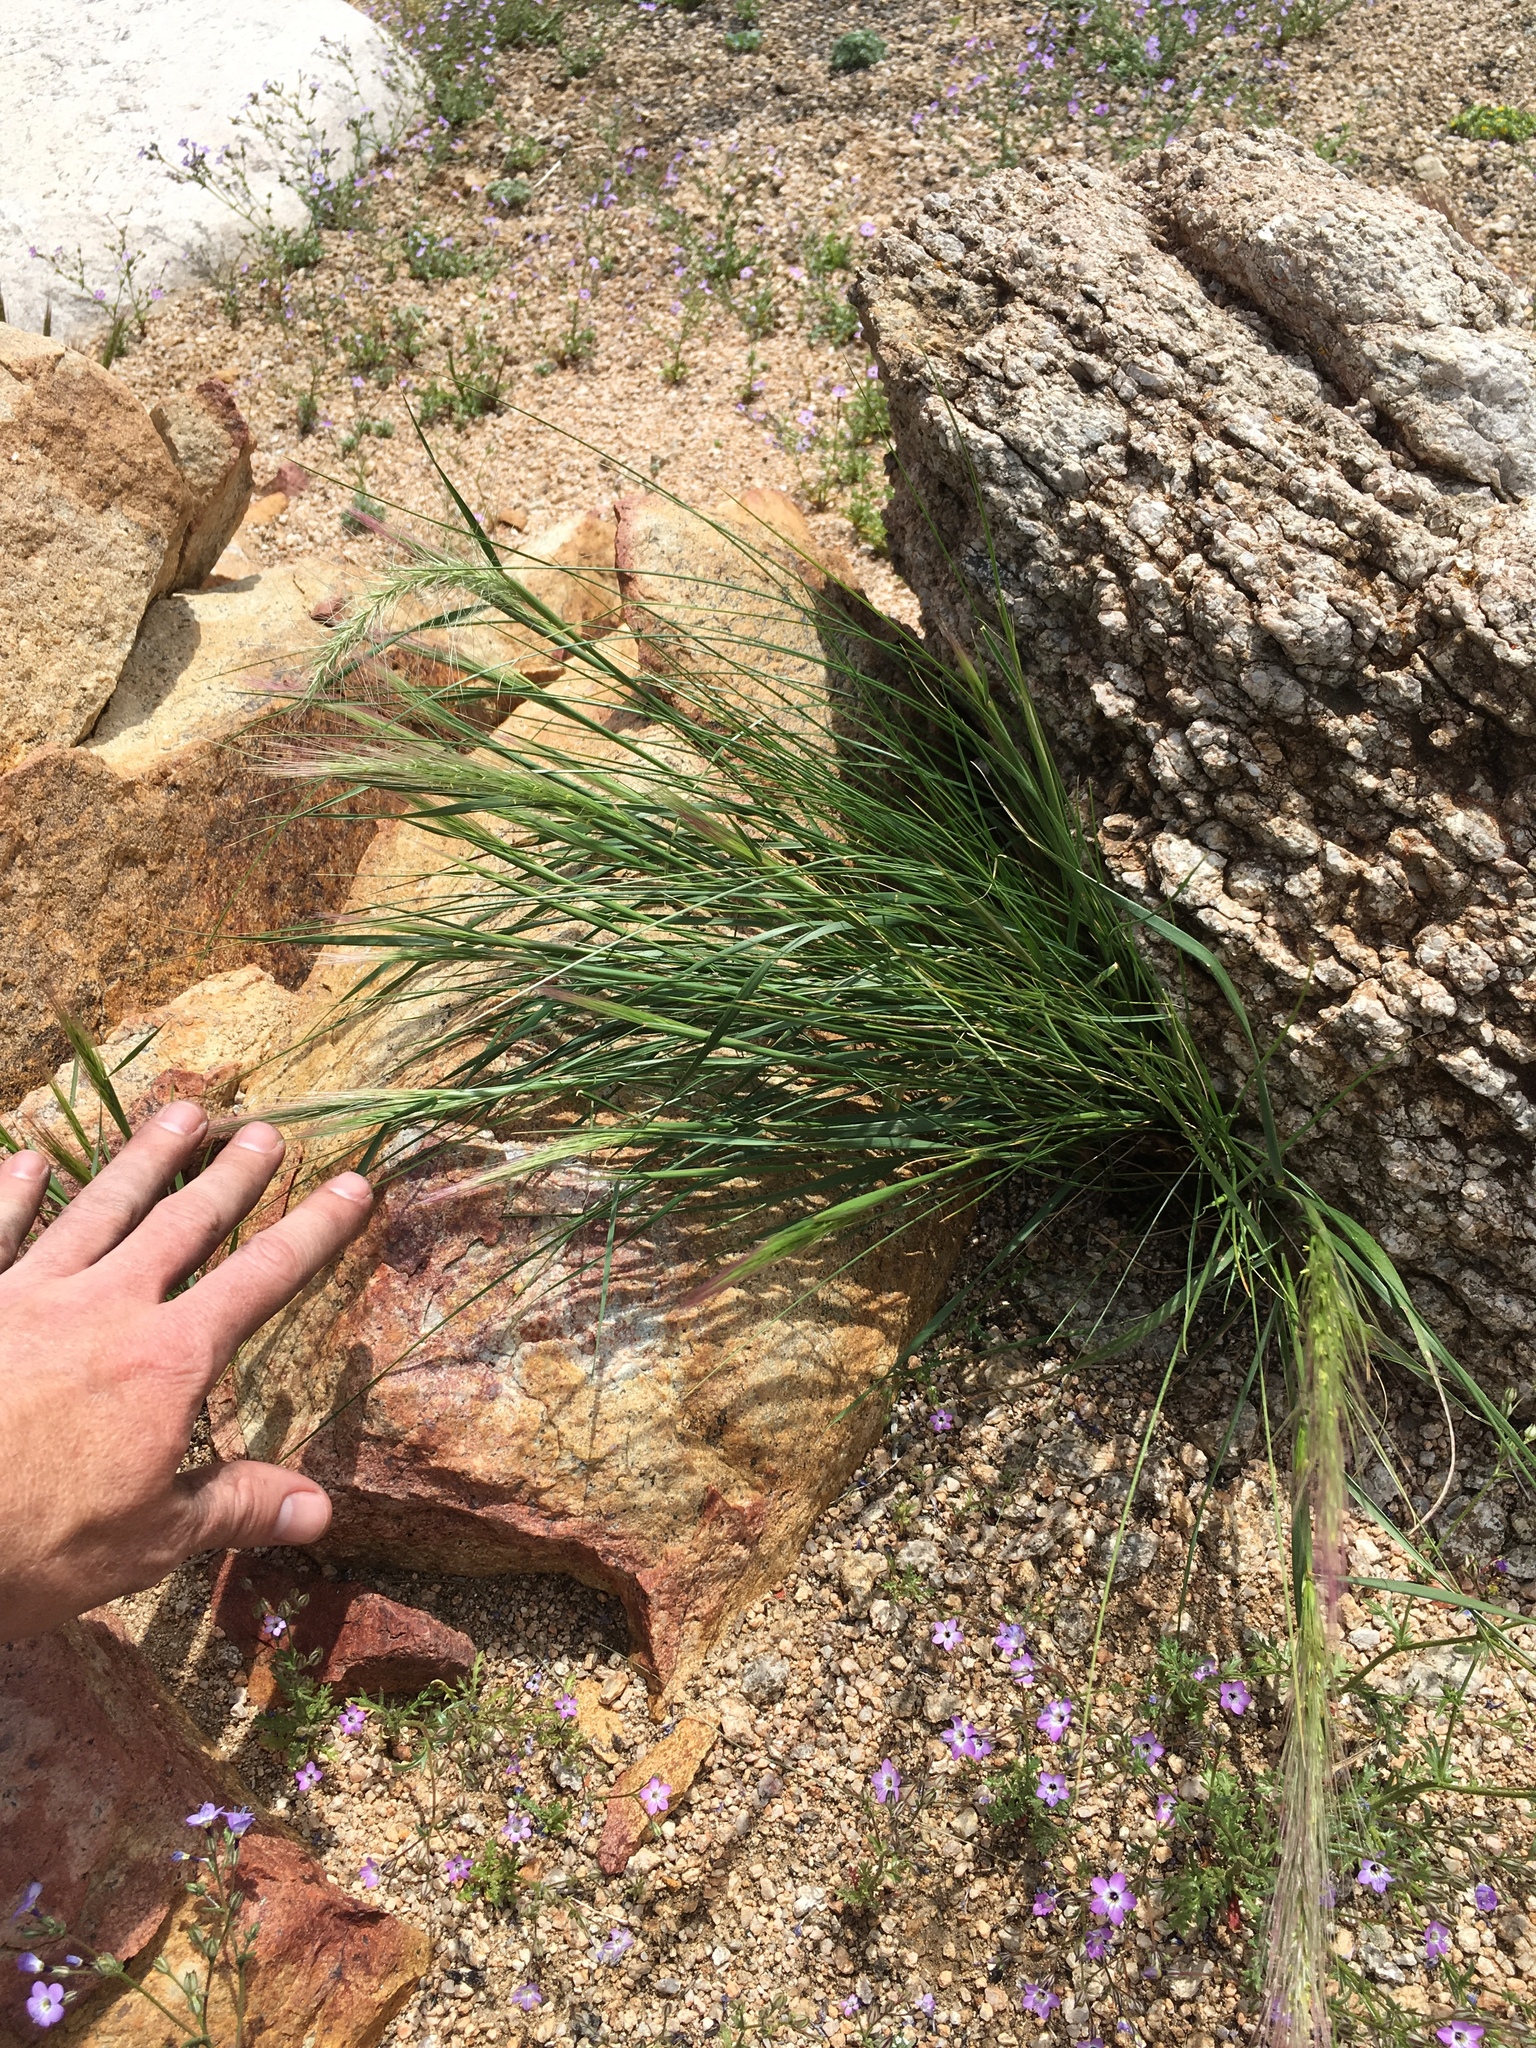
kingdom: Plantae
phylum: Tracheophyta
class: Liliopsida
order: Poales
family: Poaceae
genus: Elymus
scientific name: Elymus elymoides
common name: Bottlebrush squirreltail
